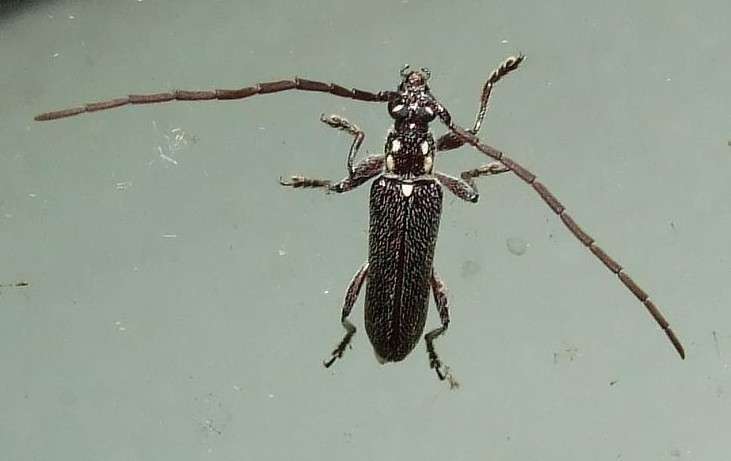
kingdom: Animalia
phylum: Arthropoda
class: Insecta
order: Coleoptera
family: Cerambycidae
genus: Strongylurus
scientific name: Strongylurus ceresioides
